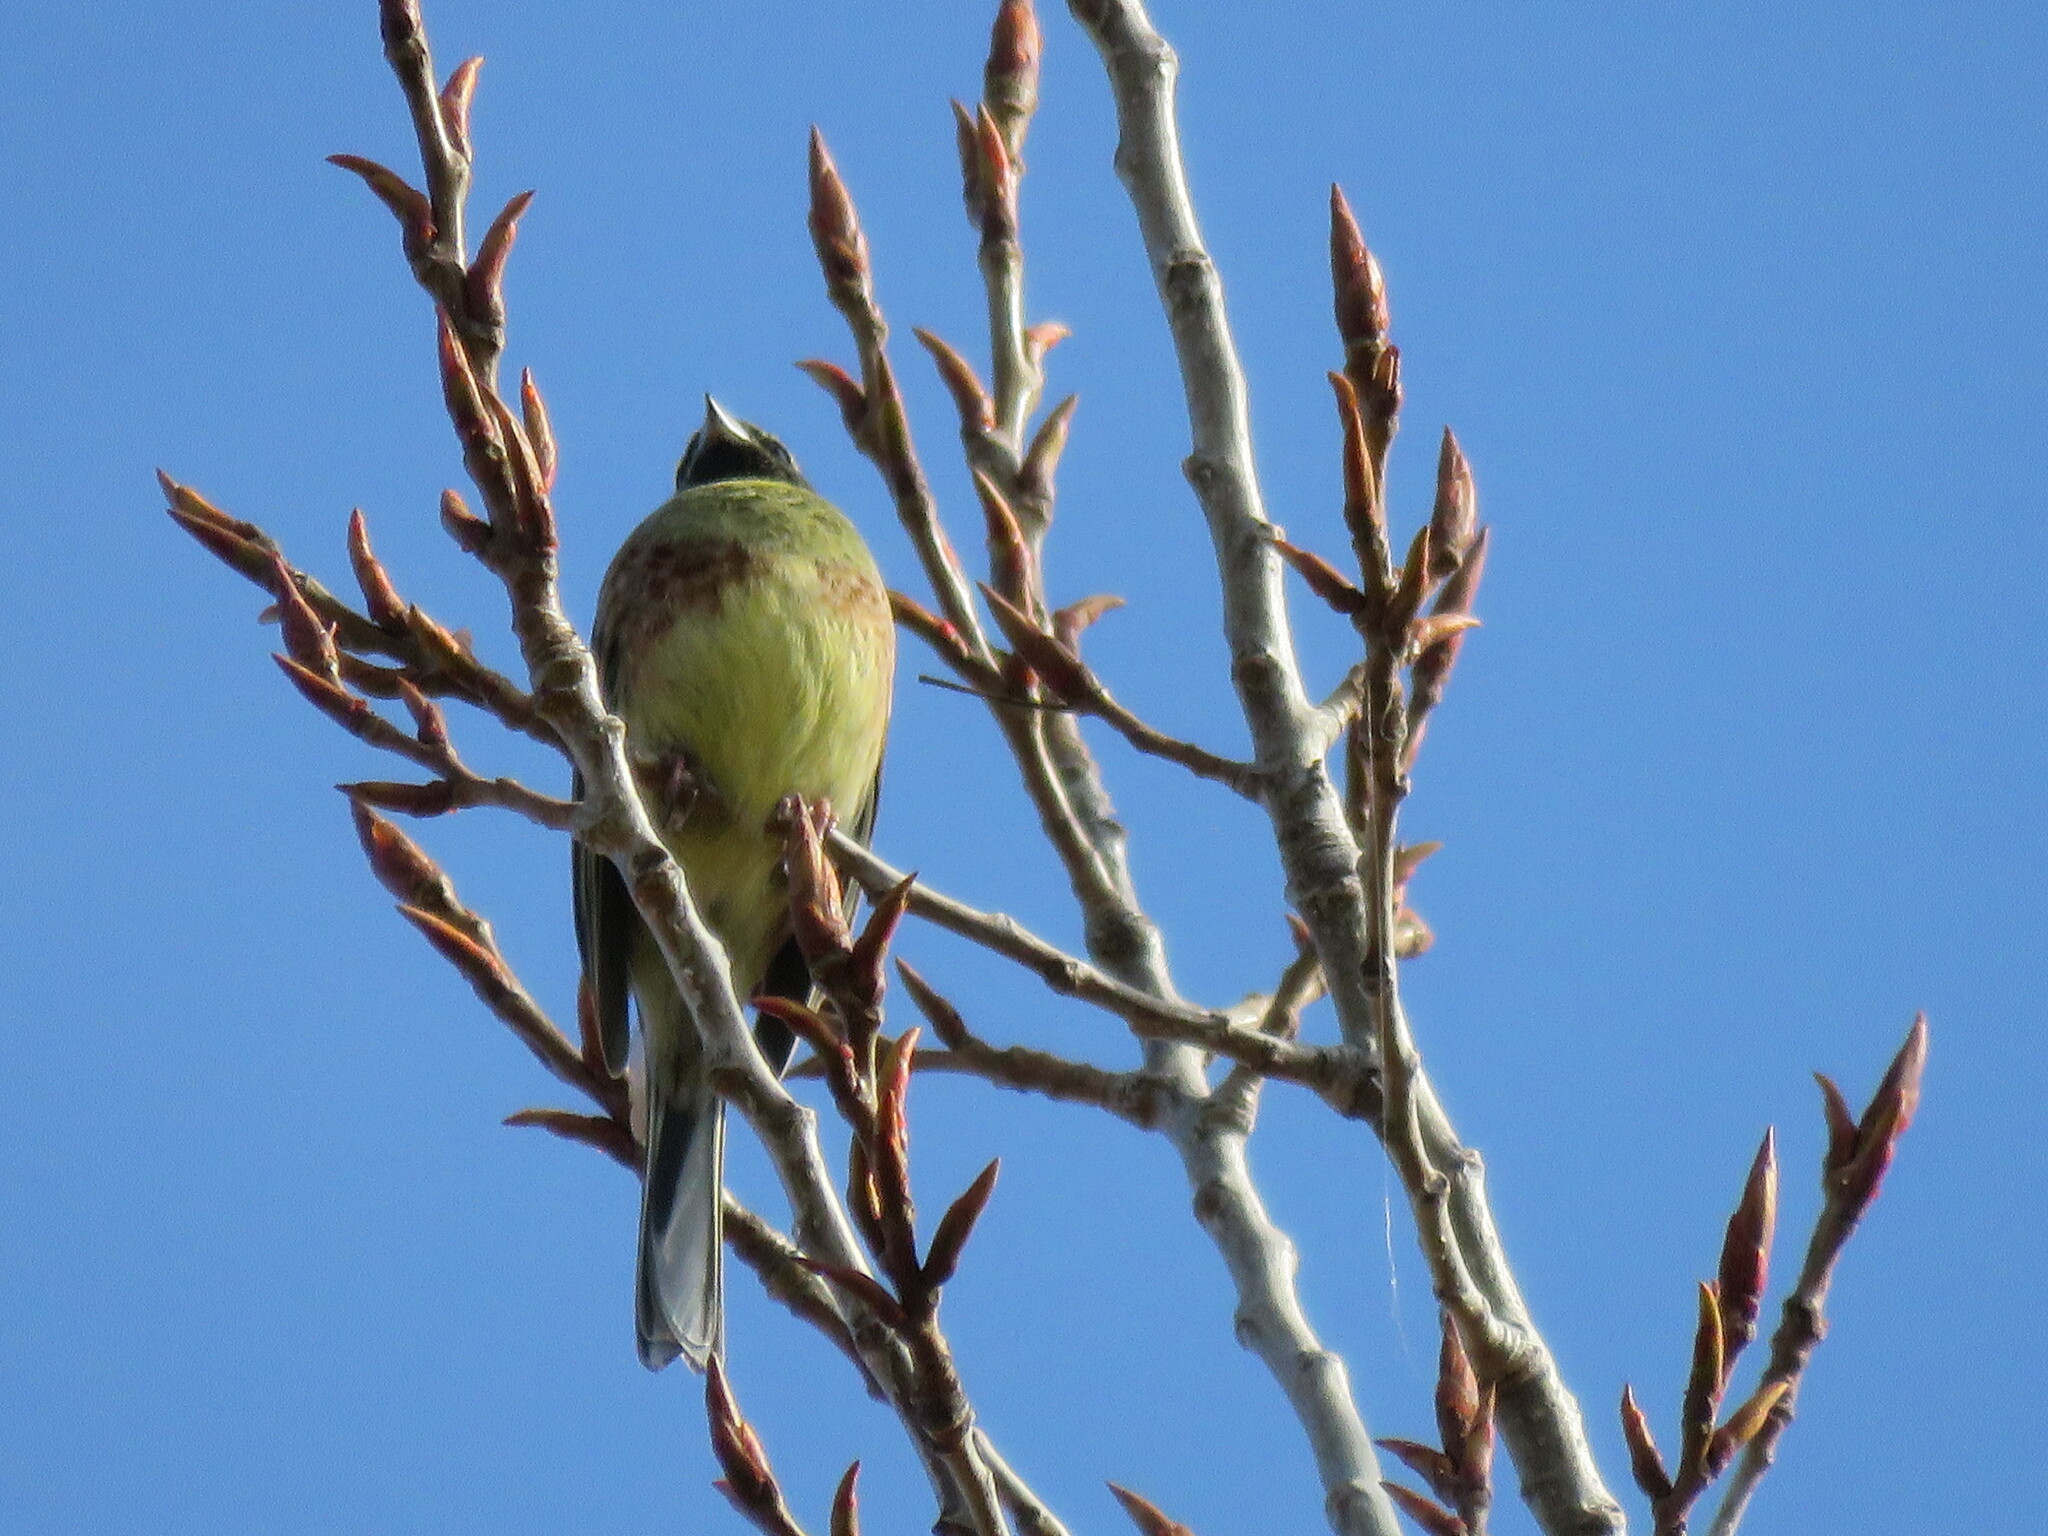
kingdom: Animalia
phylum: Chordata
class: Aves
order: Passeriformes
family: Emberizidae
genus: Emberiza
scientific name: Emberiza cirlus
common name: Cirl bunting
